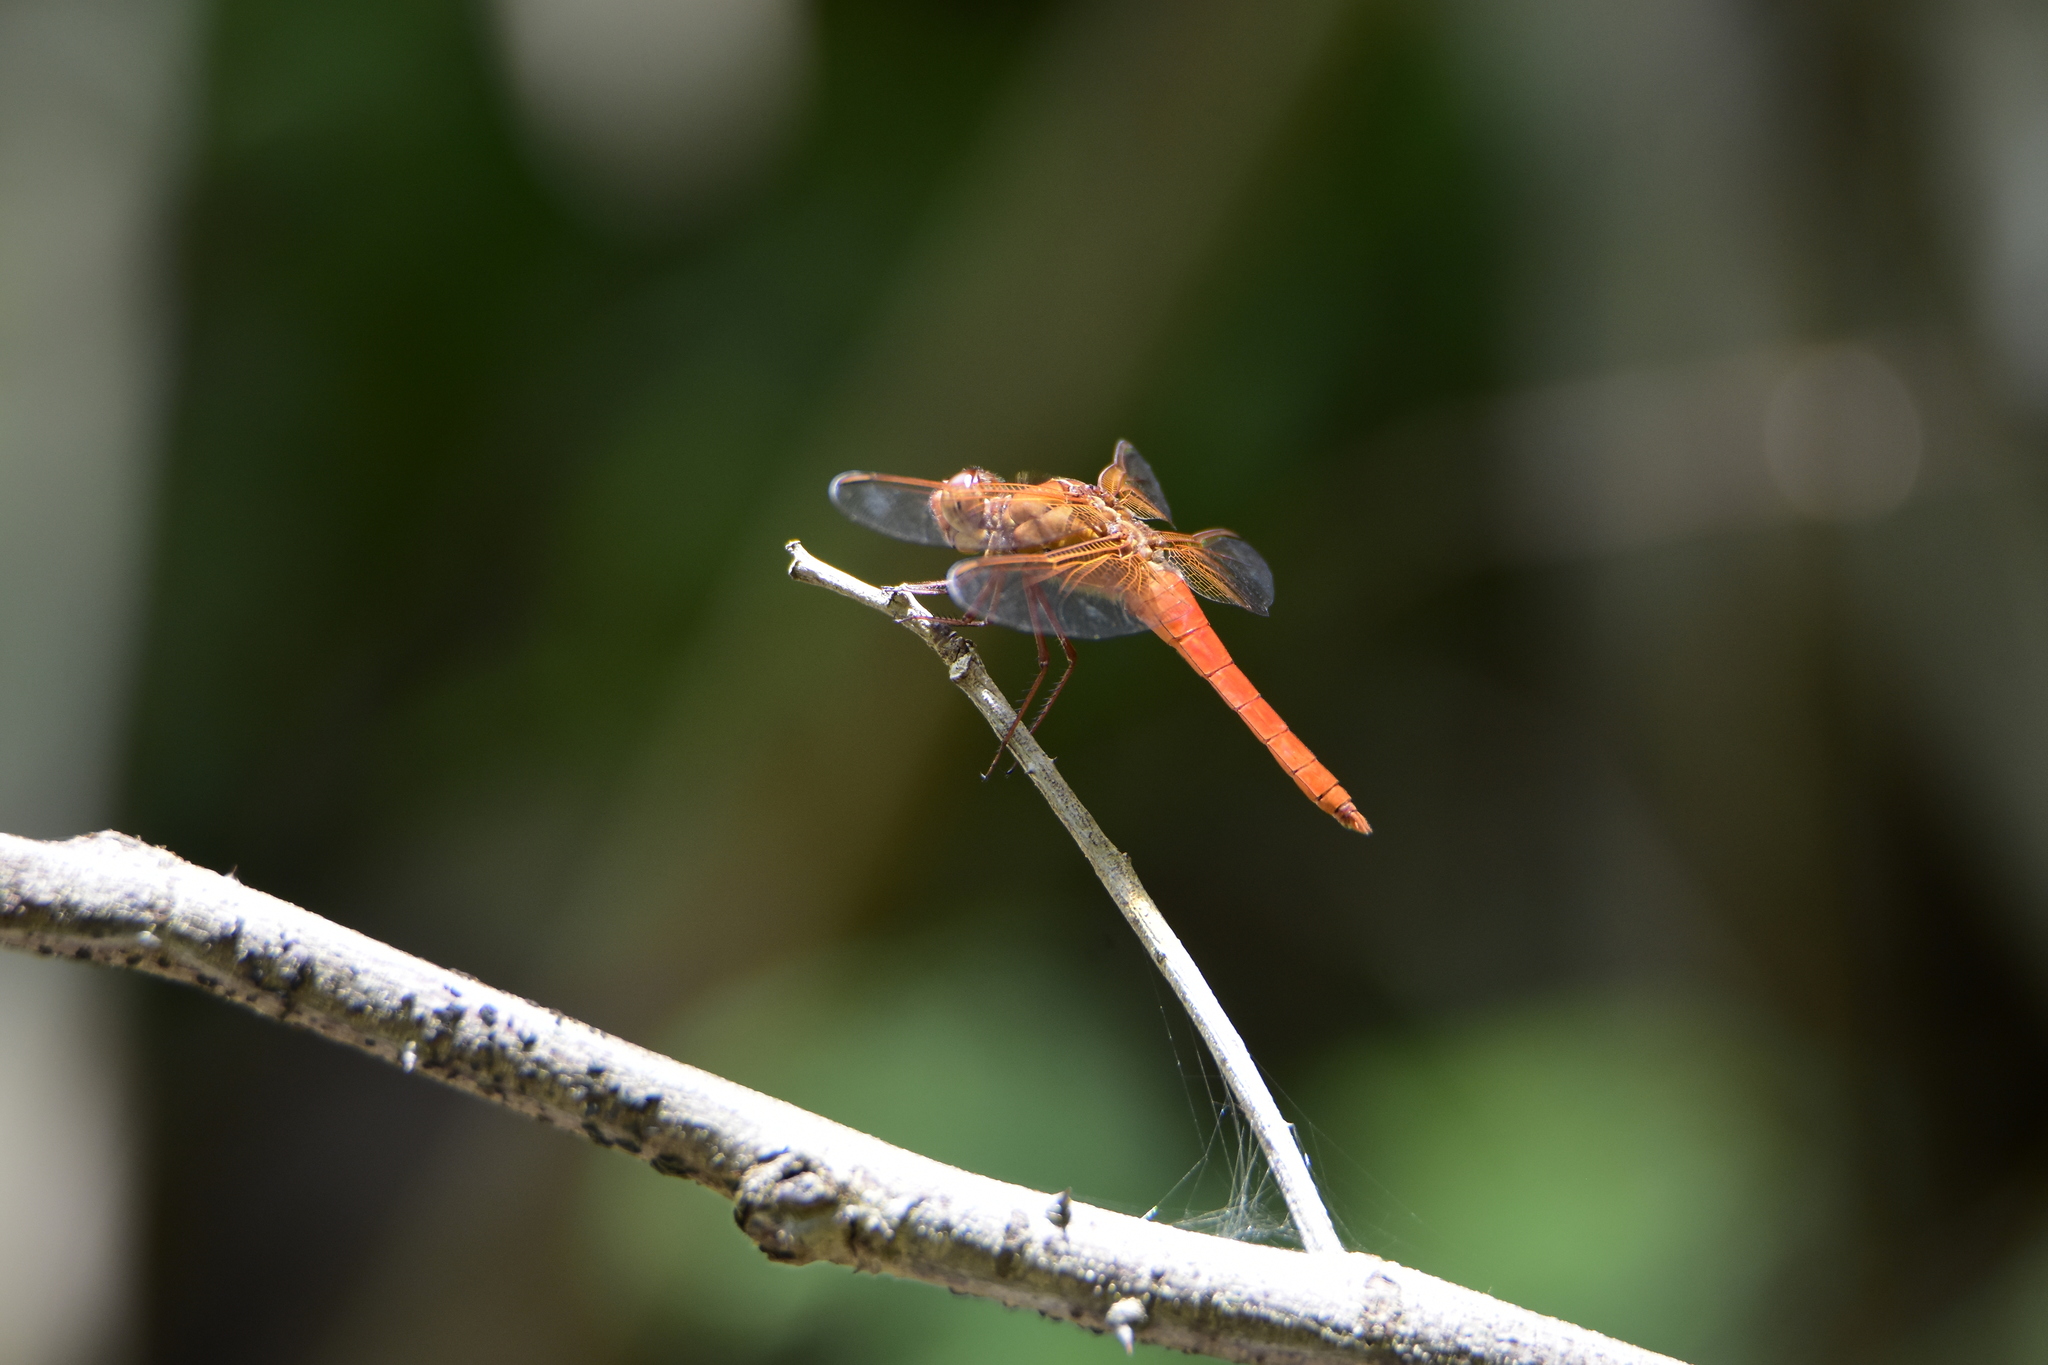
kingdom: Animalia
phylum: Arthropoda
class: Insecta
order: Odonata
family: Libellulidae
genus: Libellula
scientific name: Libellula croceipennis
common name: Neon skimmer
